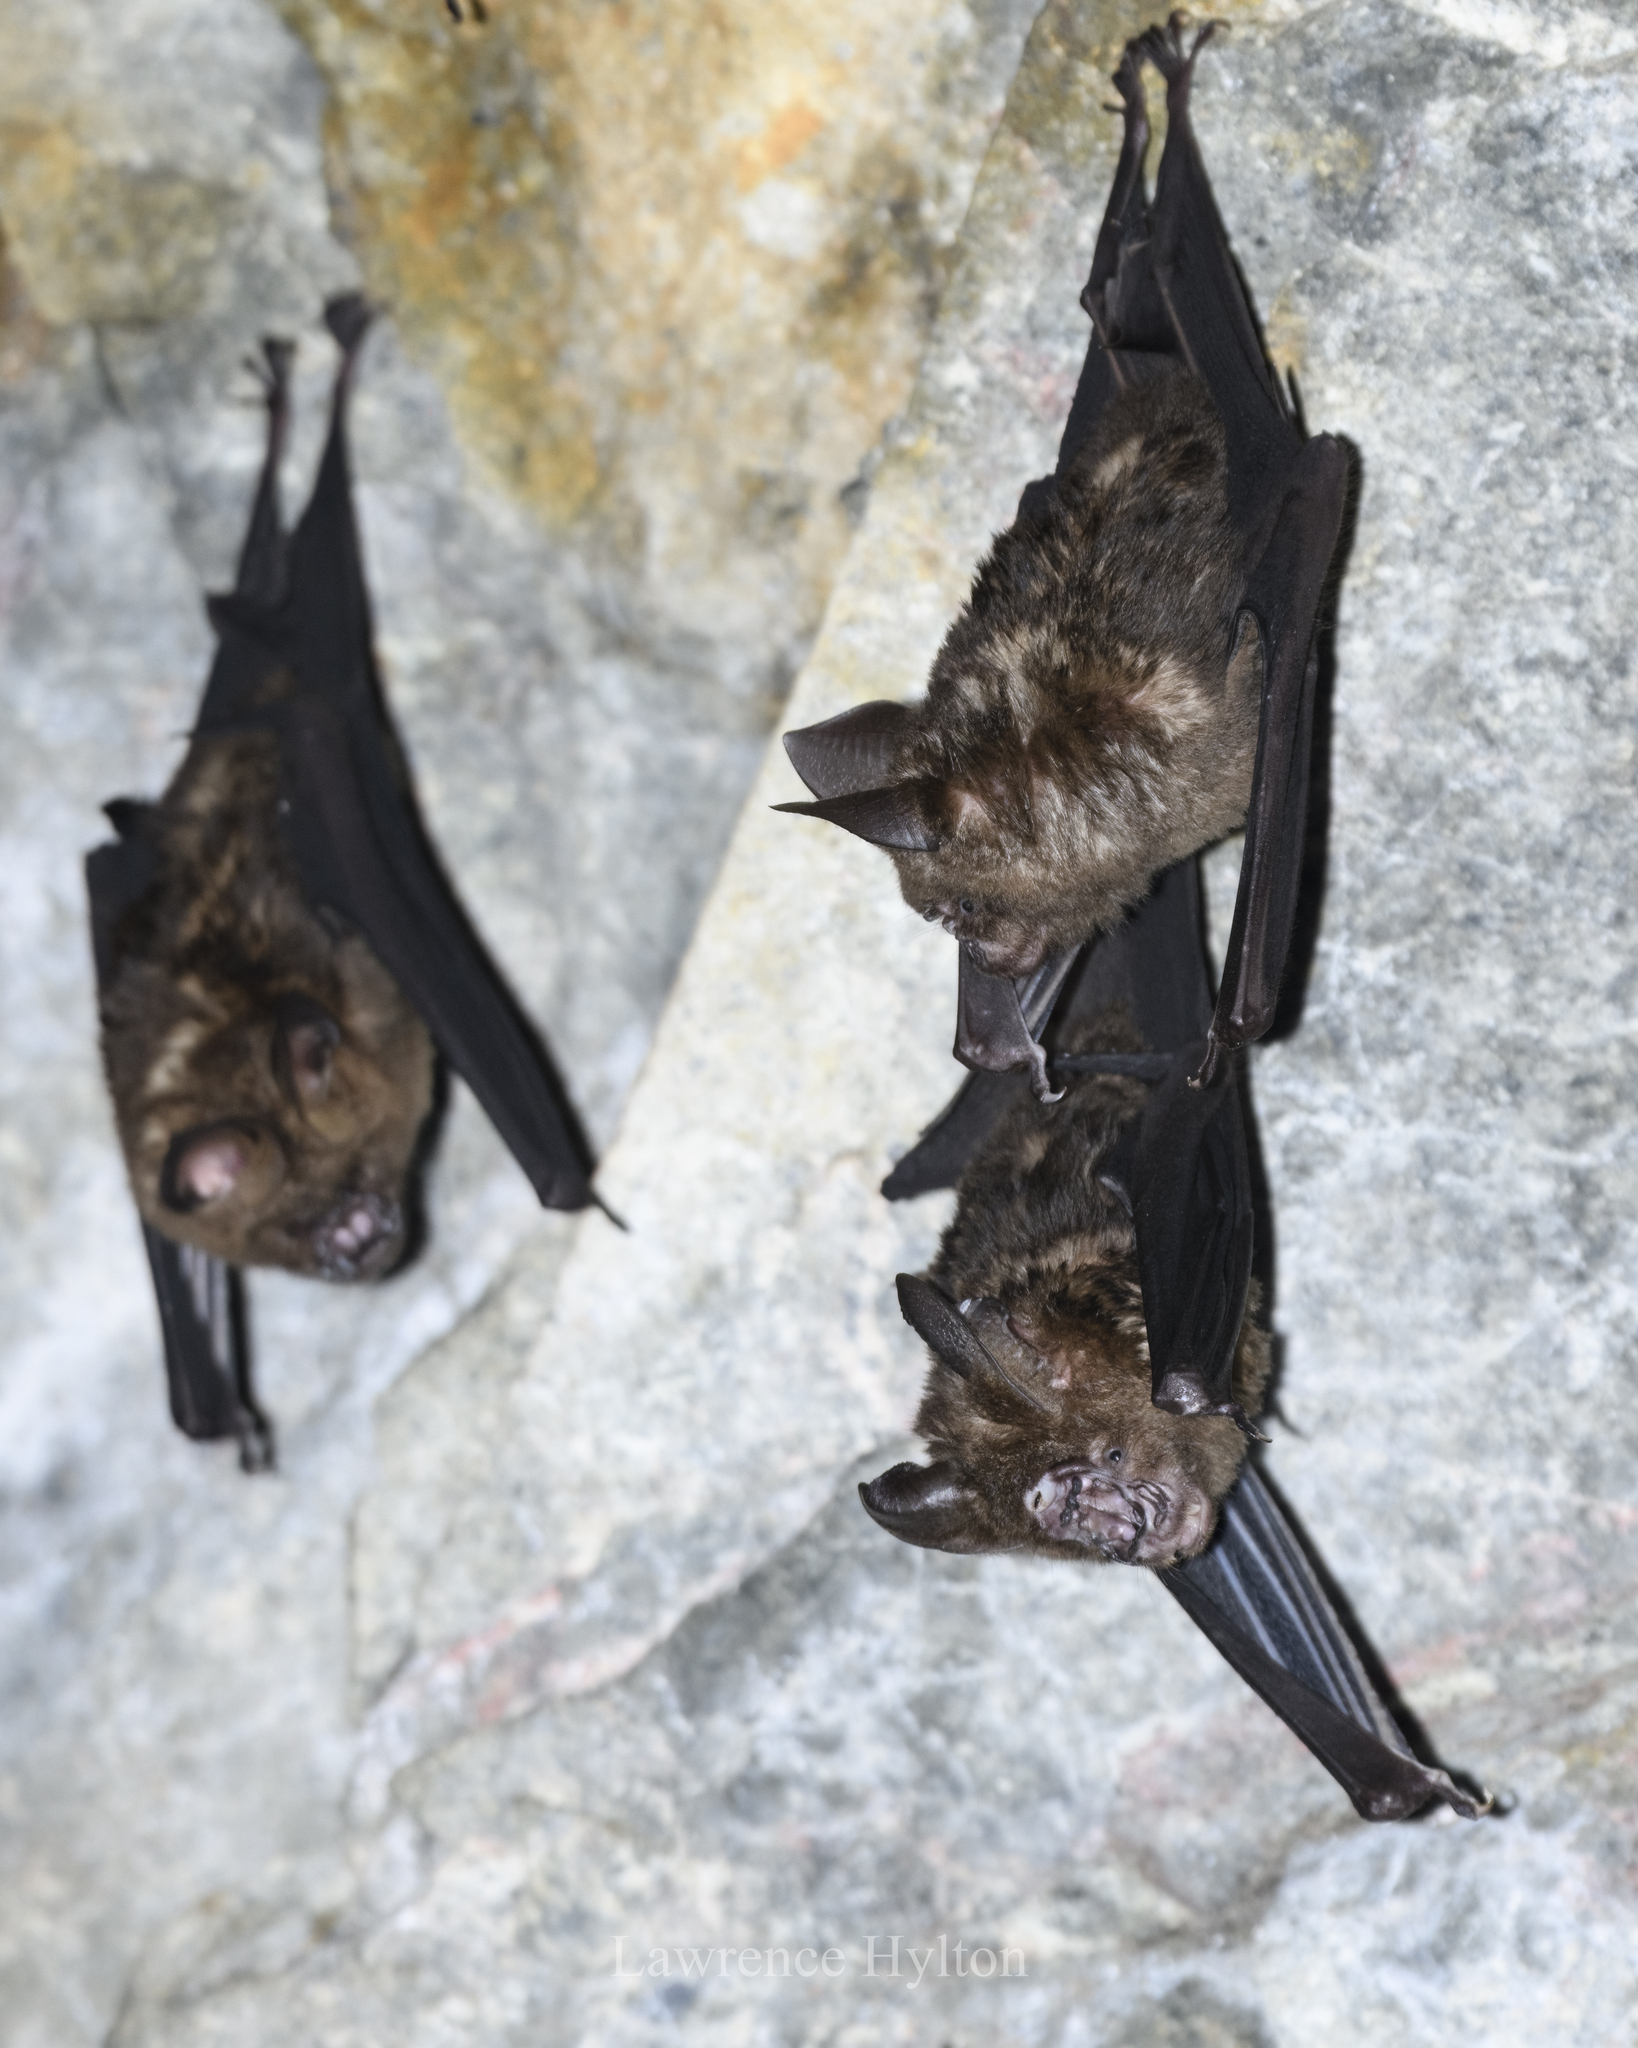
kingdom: Animalia
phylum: Chordata
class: Mammalia
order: Chiroptera
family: Hipposideridae
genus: Hipposideros
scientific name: Hipposideros armiger
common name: Great leaf-nosed bat
